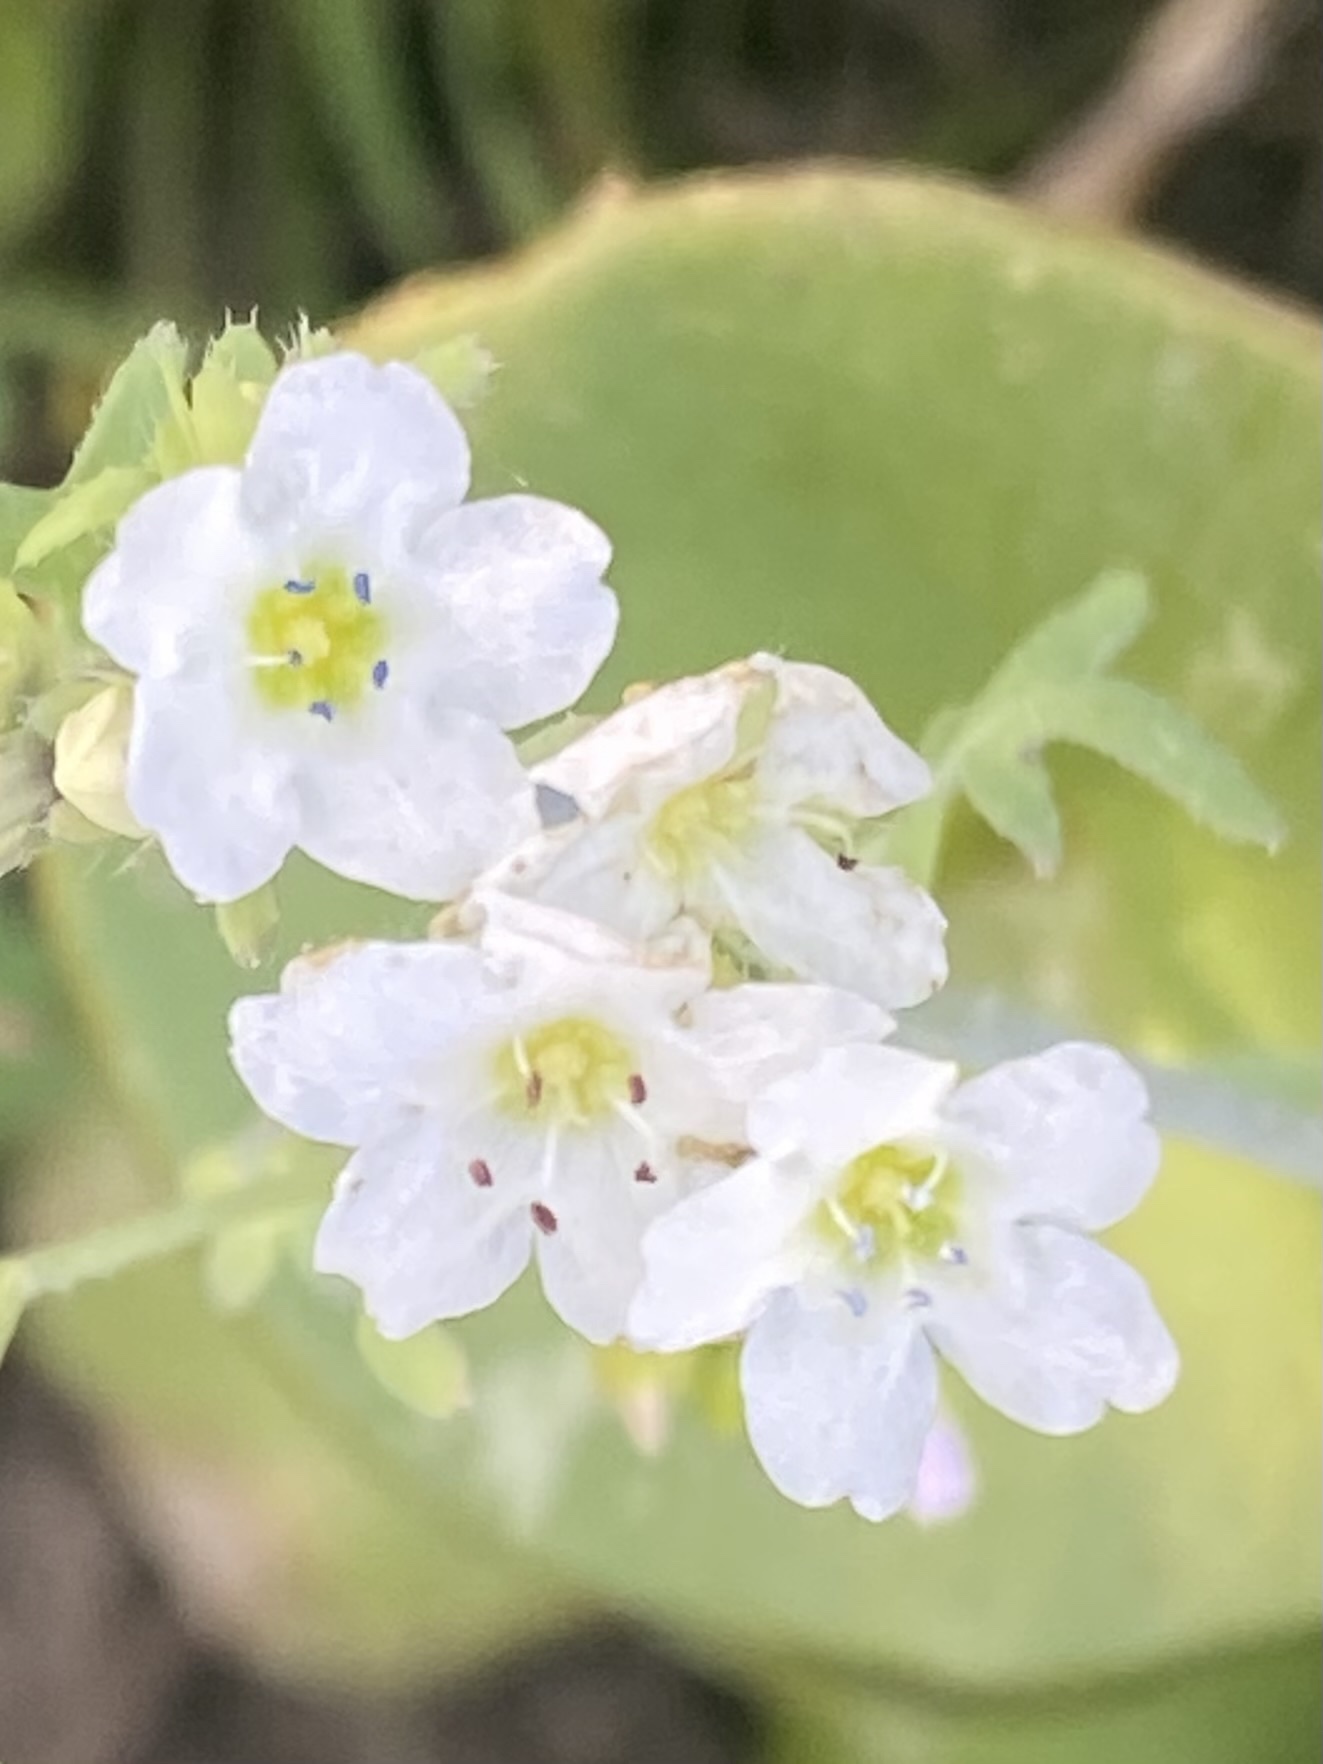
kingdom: Plantae
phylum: Tracheophyta
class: Magnoliopsida
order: Boraginales
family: Hydrophyllaceae
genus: Pholistoma
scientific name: Pholistoma membranaceum
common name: White fiesta-flower
